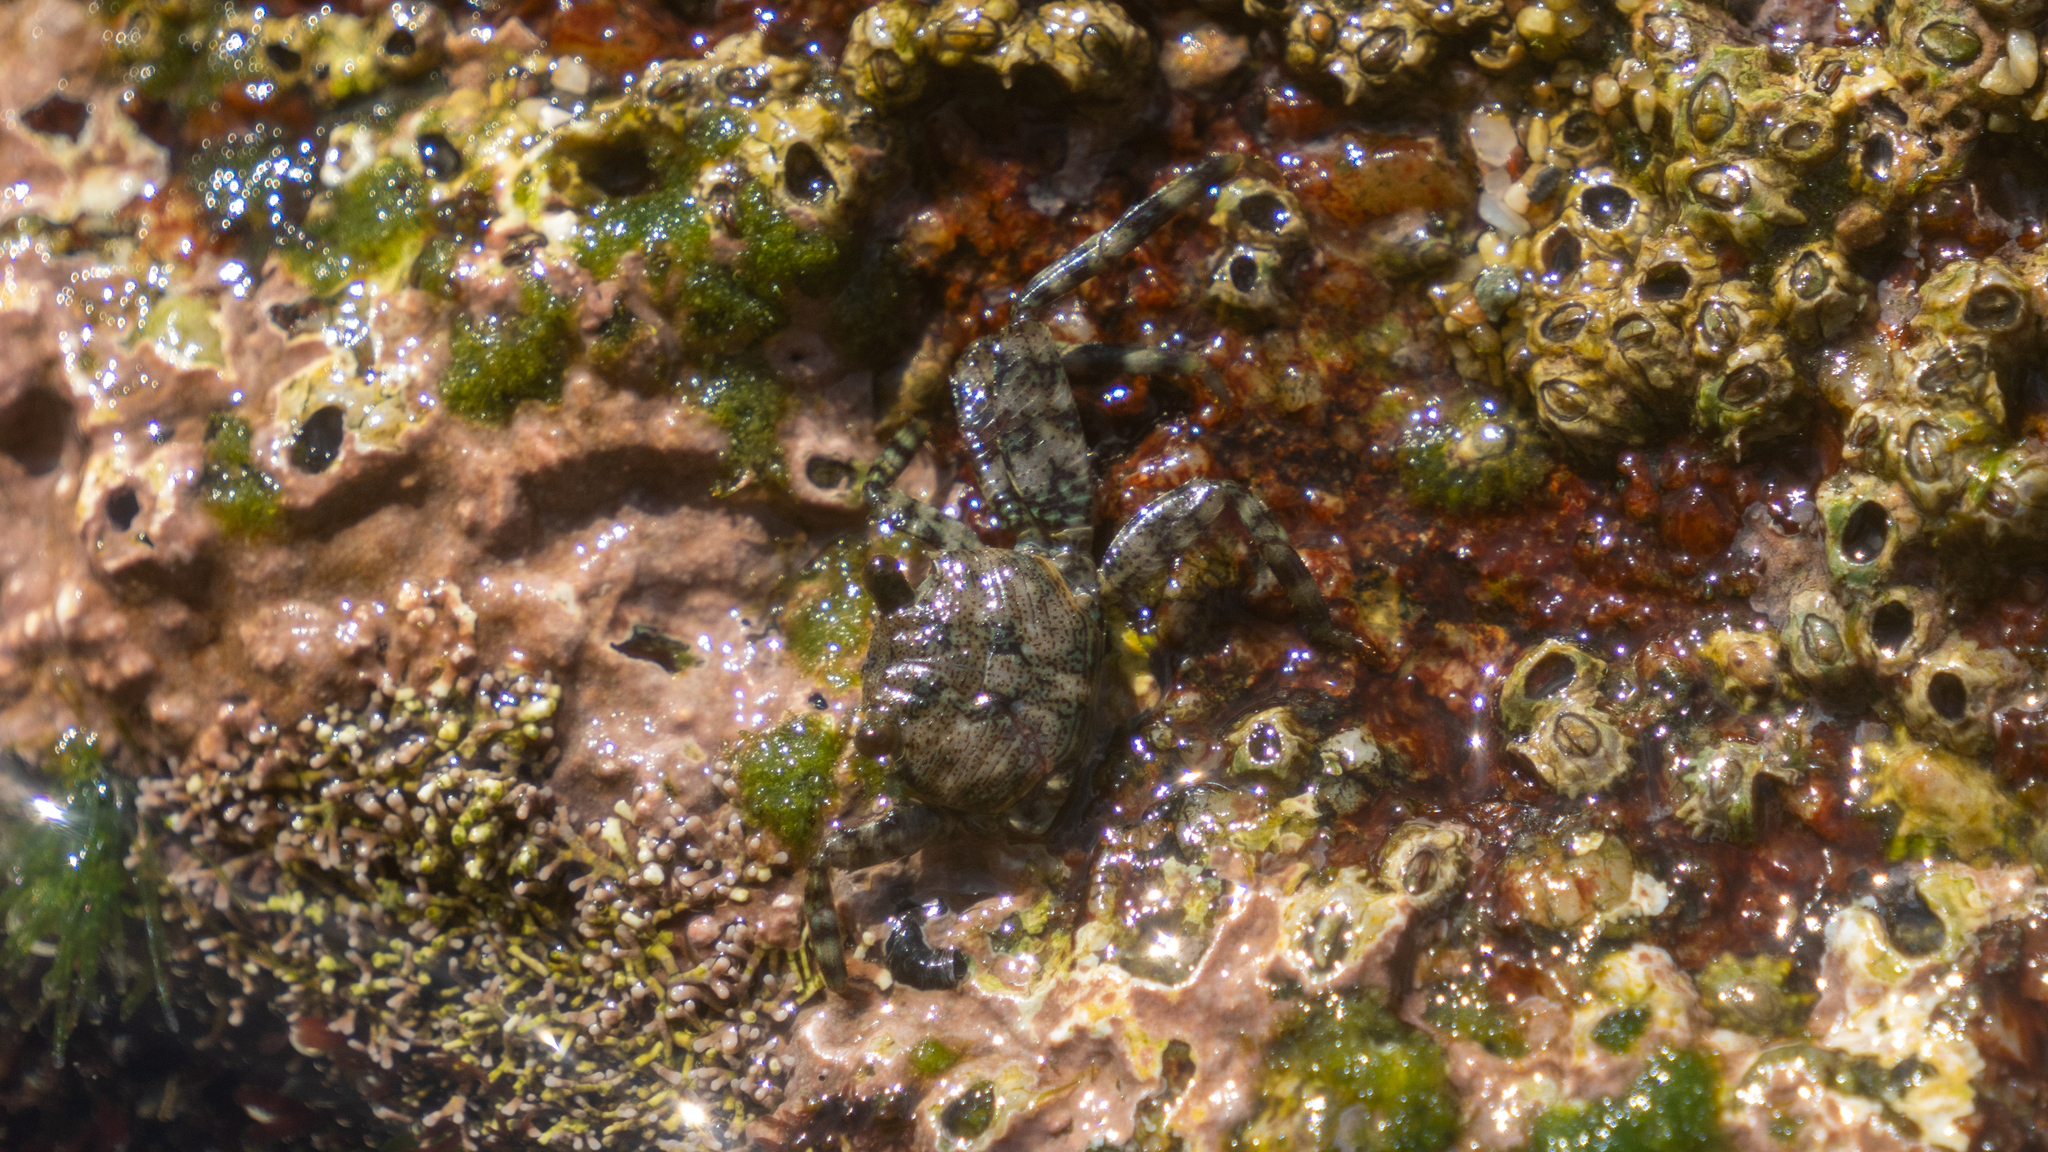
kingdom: Animalia
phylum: Arthropoda
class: Malacostraca
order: Decapoda
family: Grapsidae
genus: Grapsus
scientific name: Grapsus grapsus
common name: Sally lightfoot
